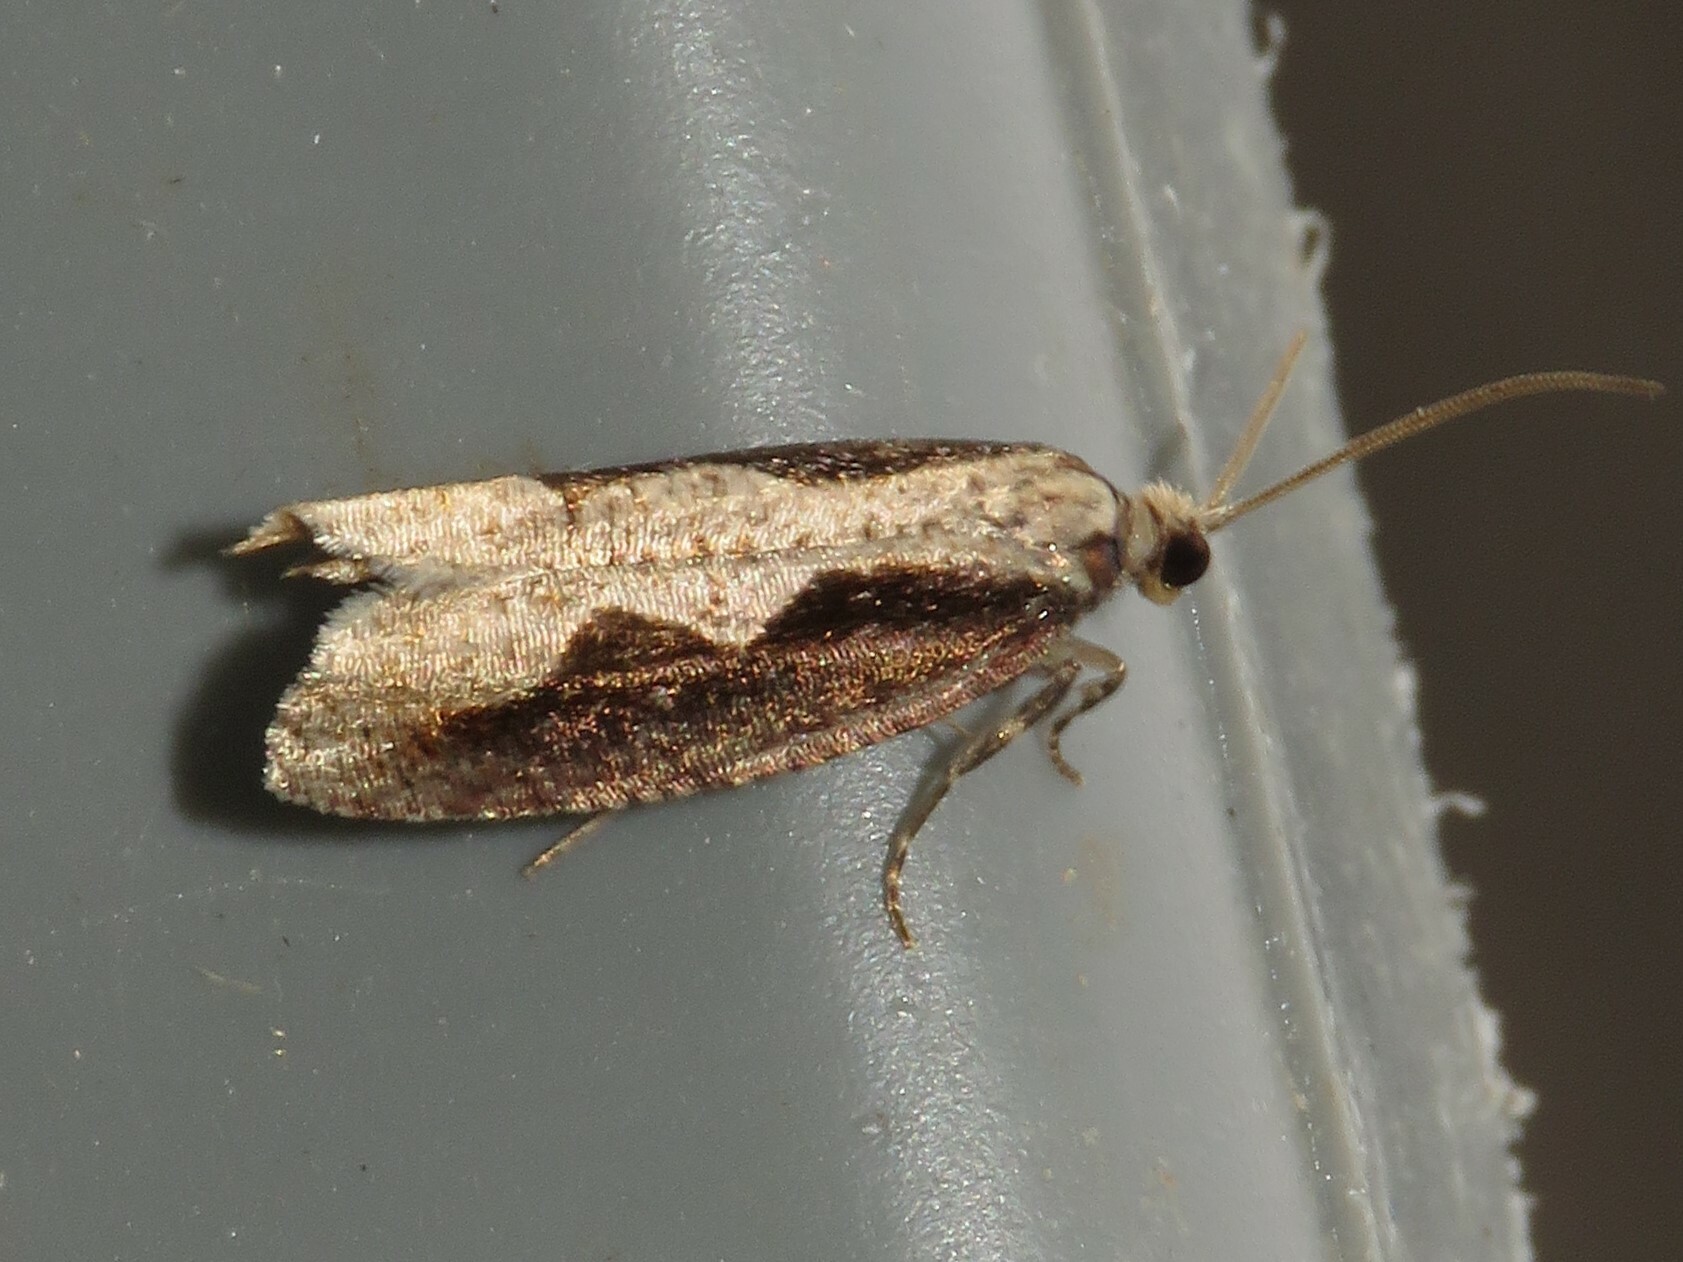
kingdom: Animalia
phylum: Arthropoda
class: Insecta
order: Lepidoptera
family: Tortricidae
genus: Epinotia
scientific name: Epinotia lindana
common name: Diamondback epinotia moth
